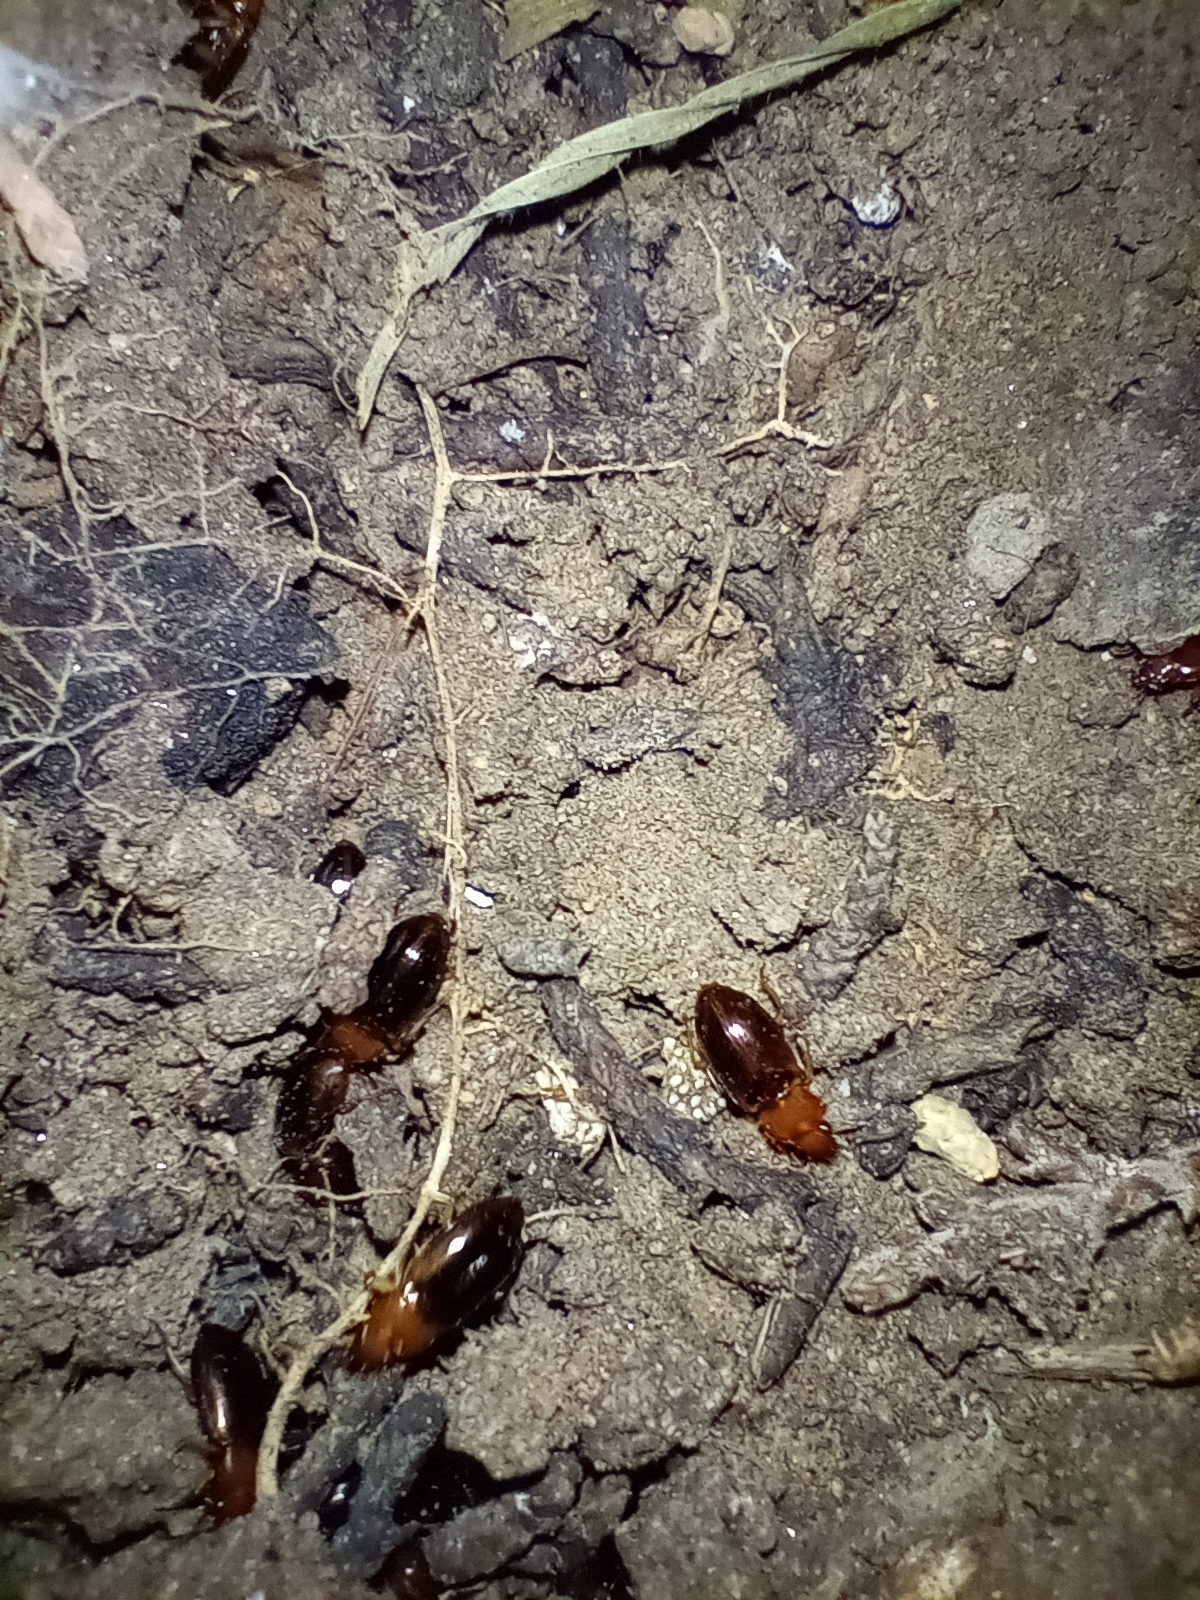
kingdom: Animalia
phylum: Arthropoda
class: Insecta
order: Coleoptera
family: Carabidae
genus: Bradycellus
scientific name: Bradycellus nitidus
